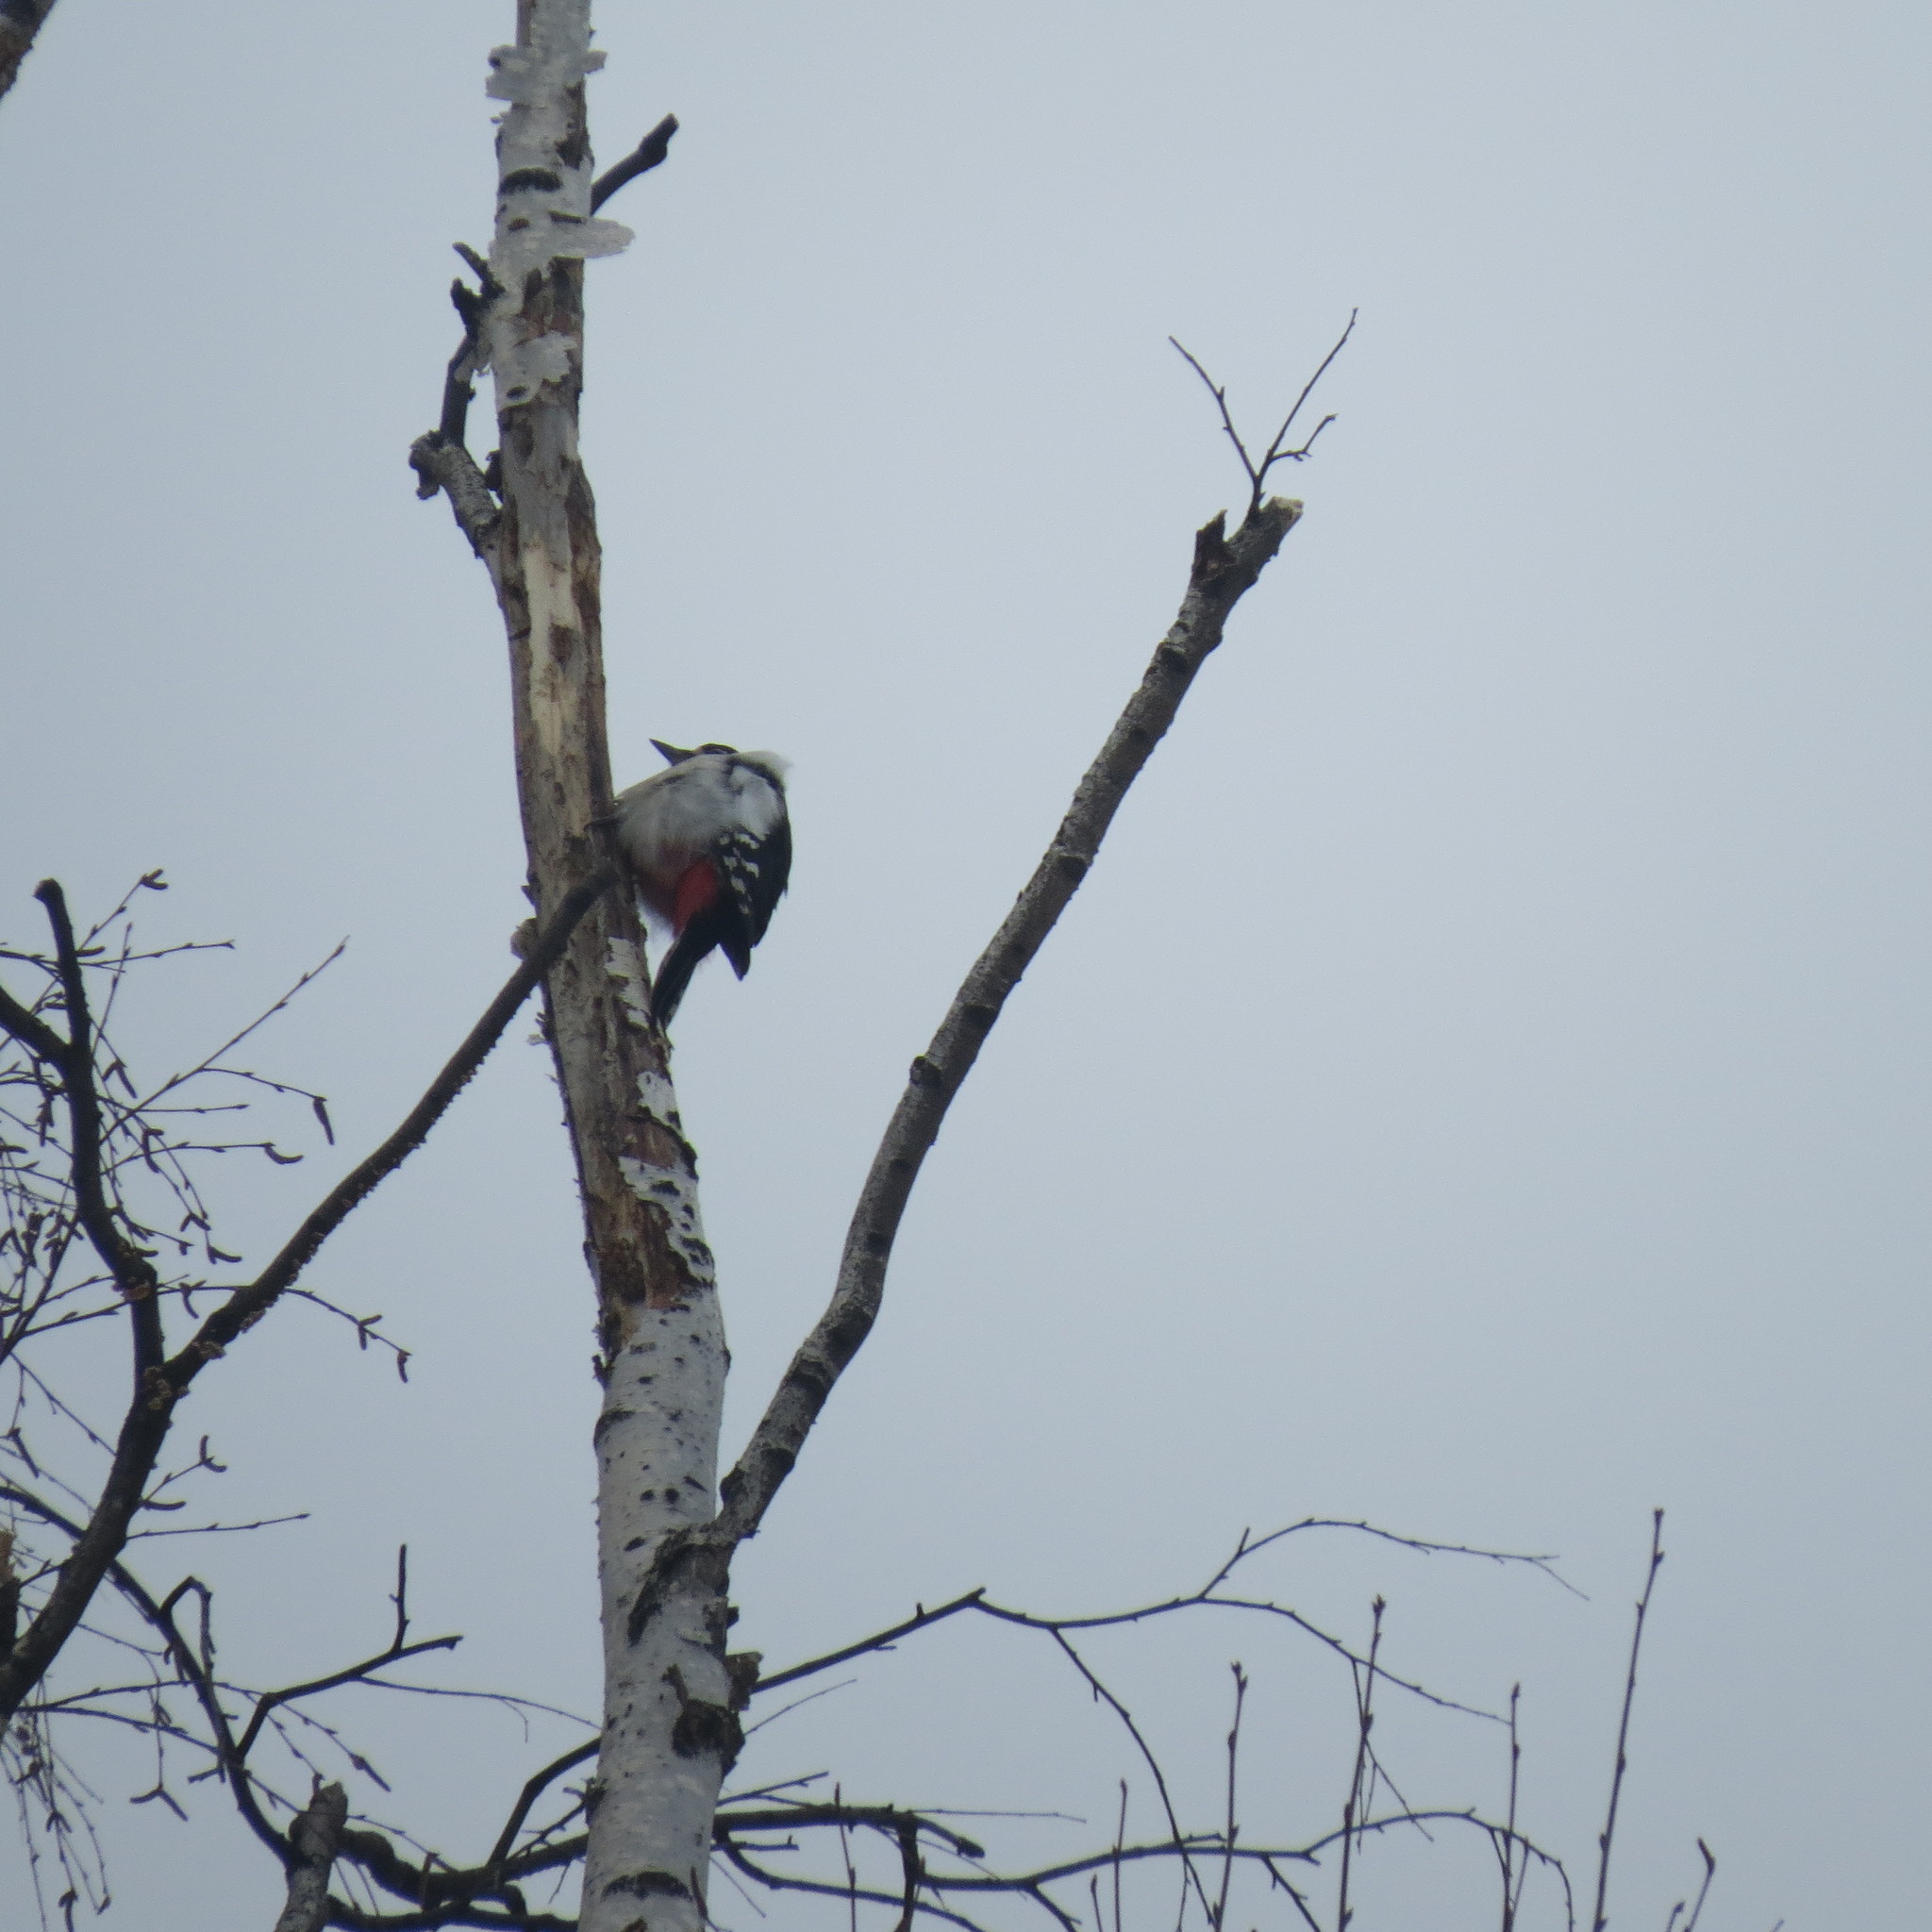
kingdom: Animalia
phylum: Chordata
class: Aves
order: Piciformes
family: Picidae
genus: Dendrocopos
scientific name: Dendrocopos major
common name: Great spotted woodpecker
